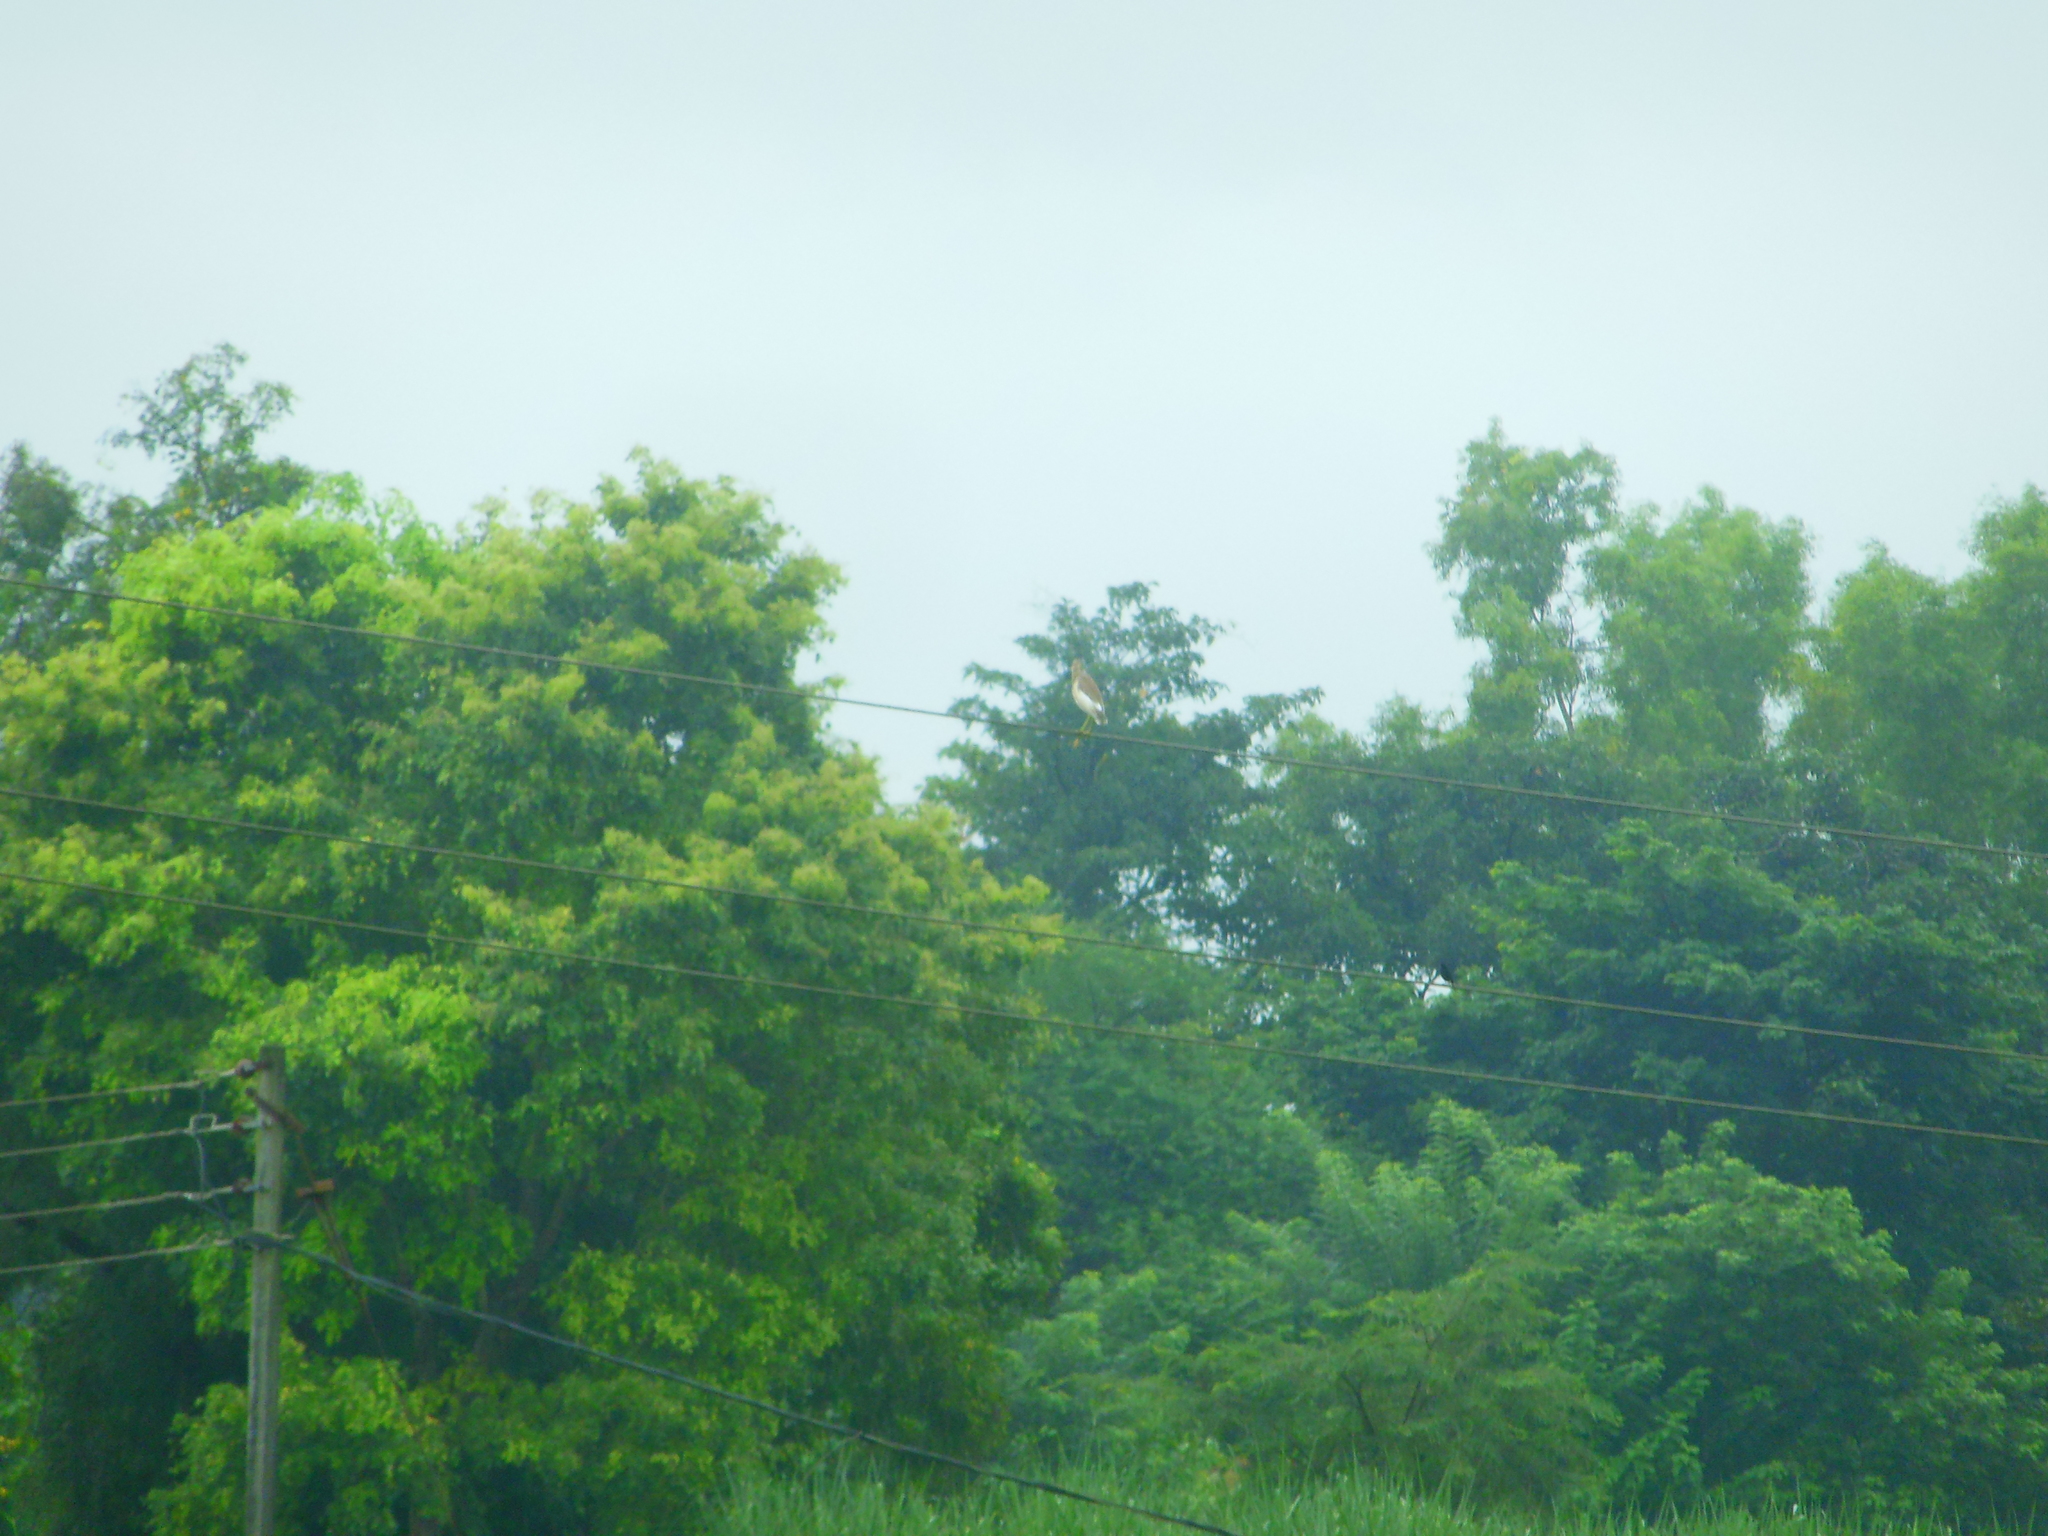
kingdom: Animalia
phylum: Chordata
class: Aves
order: Pelecaniformes
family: Ardeidae
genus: Ardeola
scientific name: Ardeola grayii
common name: Indian pond heron
